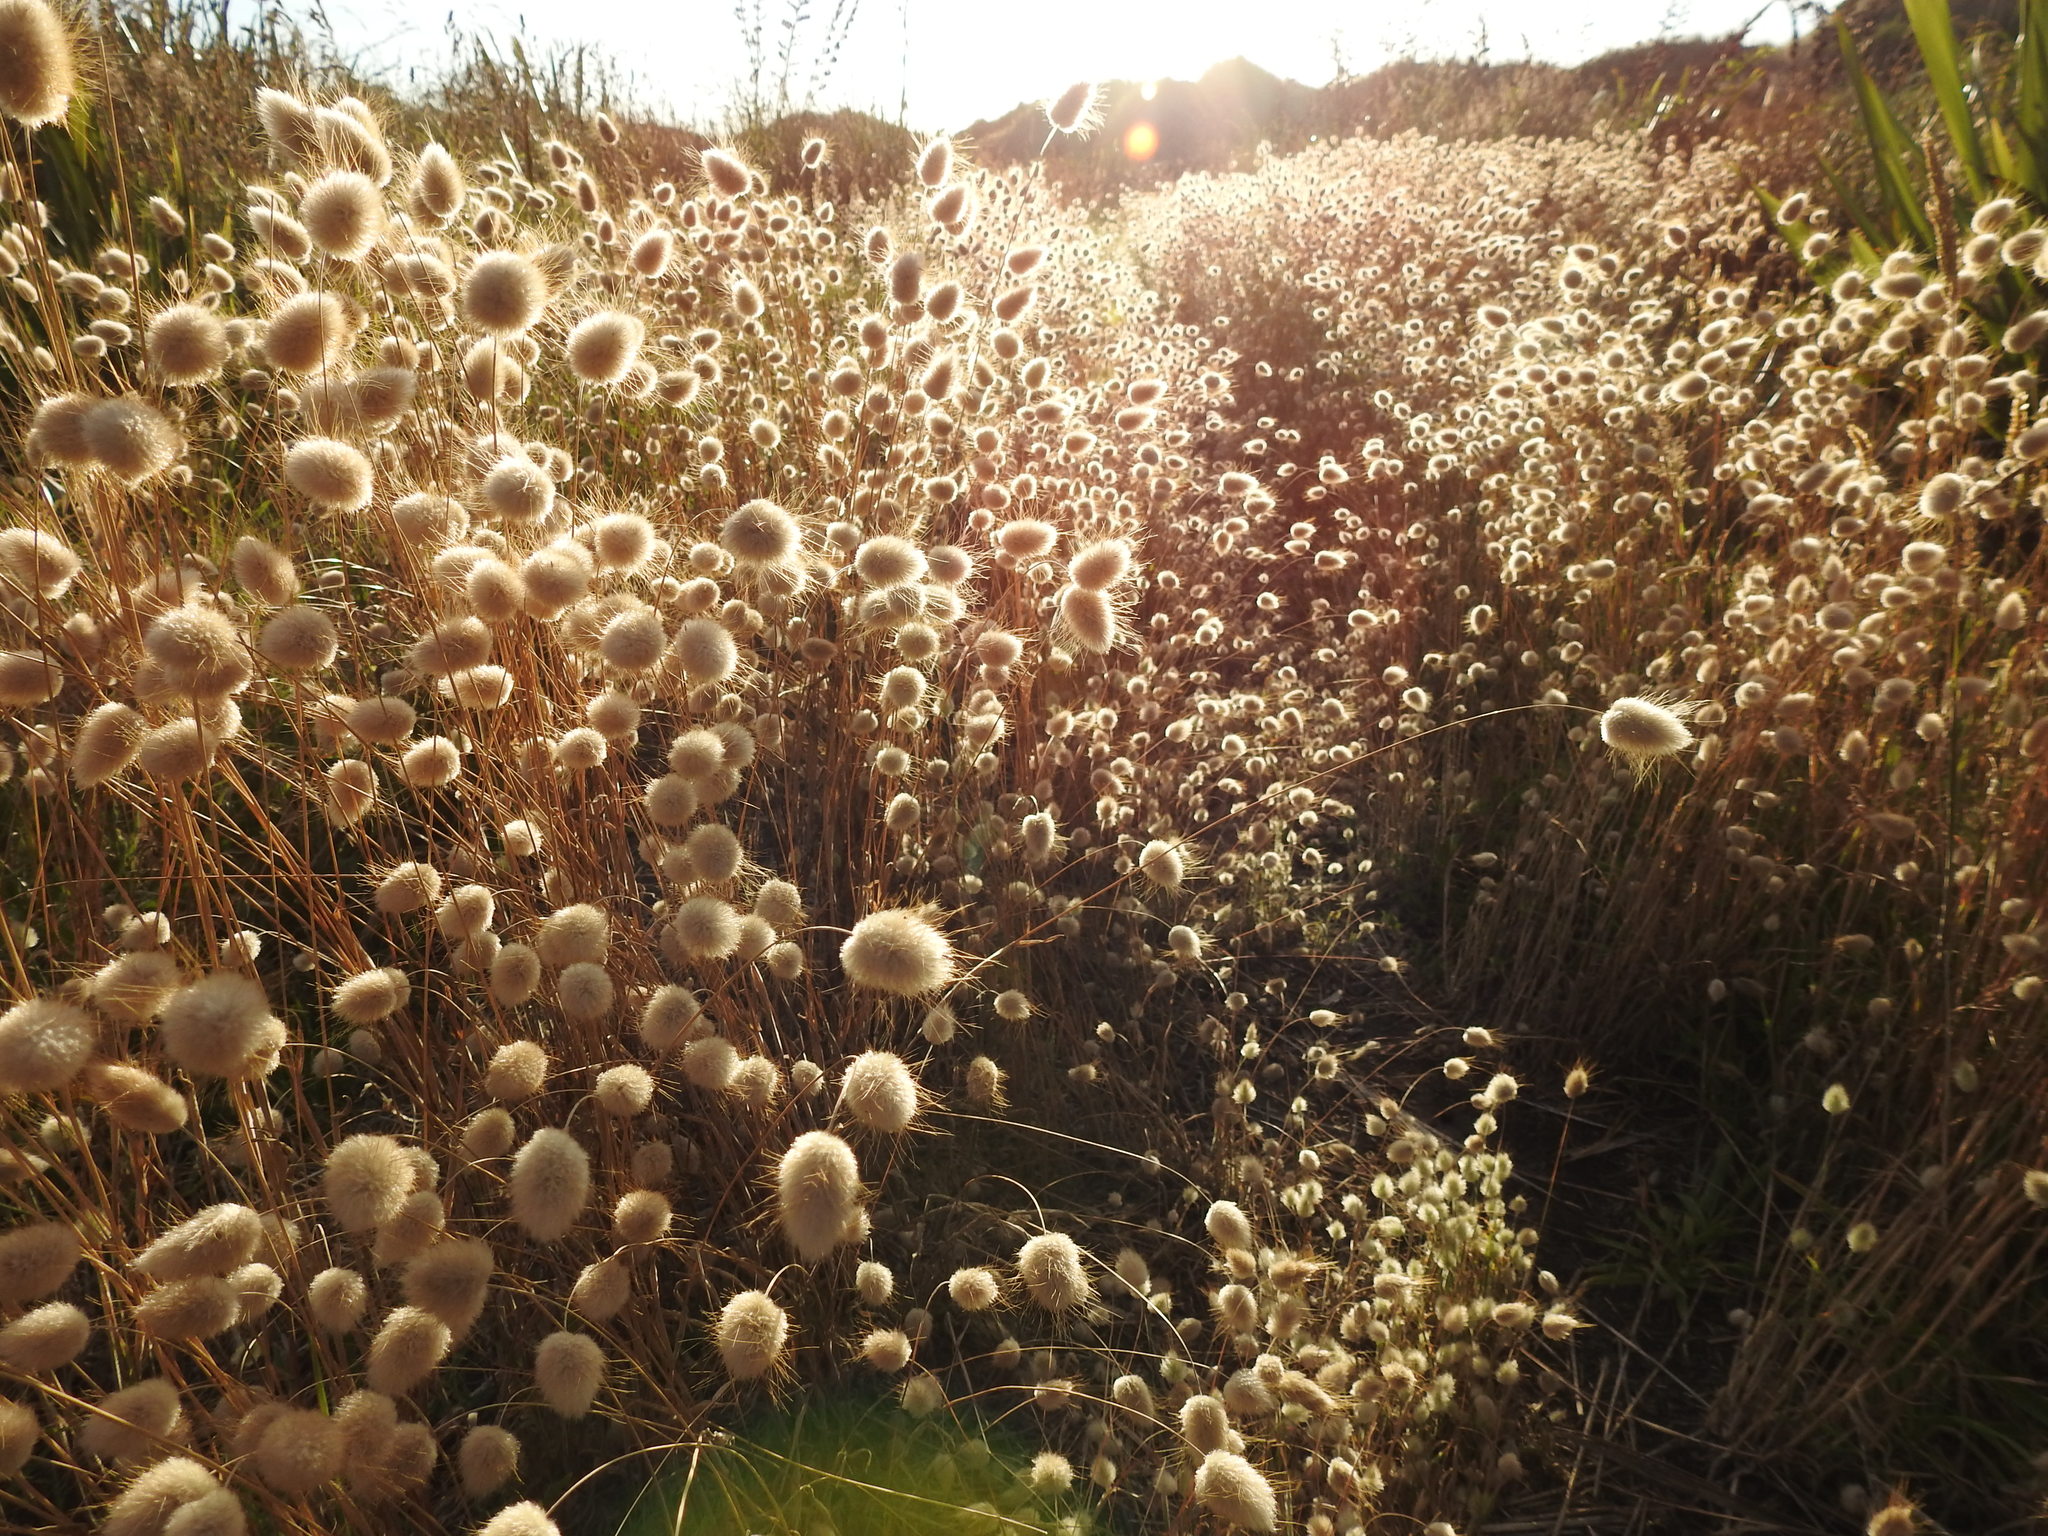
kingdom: Plantae
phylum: Tracheophyta
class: Liliopsida
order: Poales
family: Poaceae
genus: Lagurus
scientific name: Lagurus ovatus
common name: Hare's-tail
